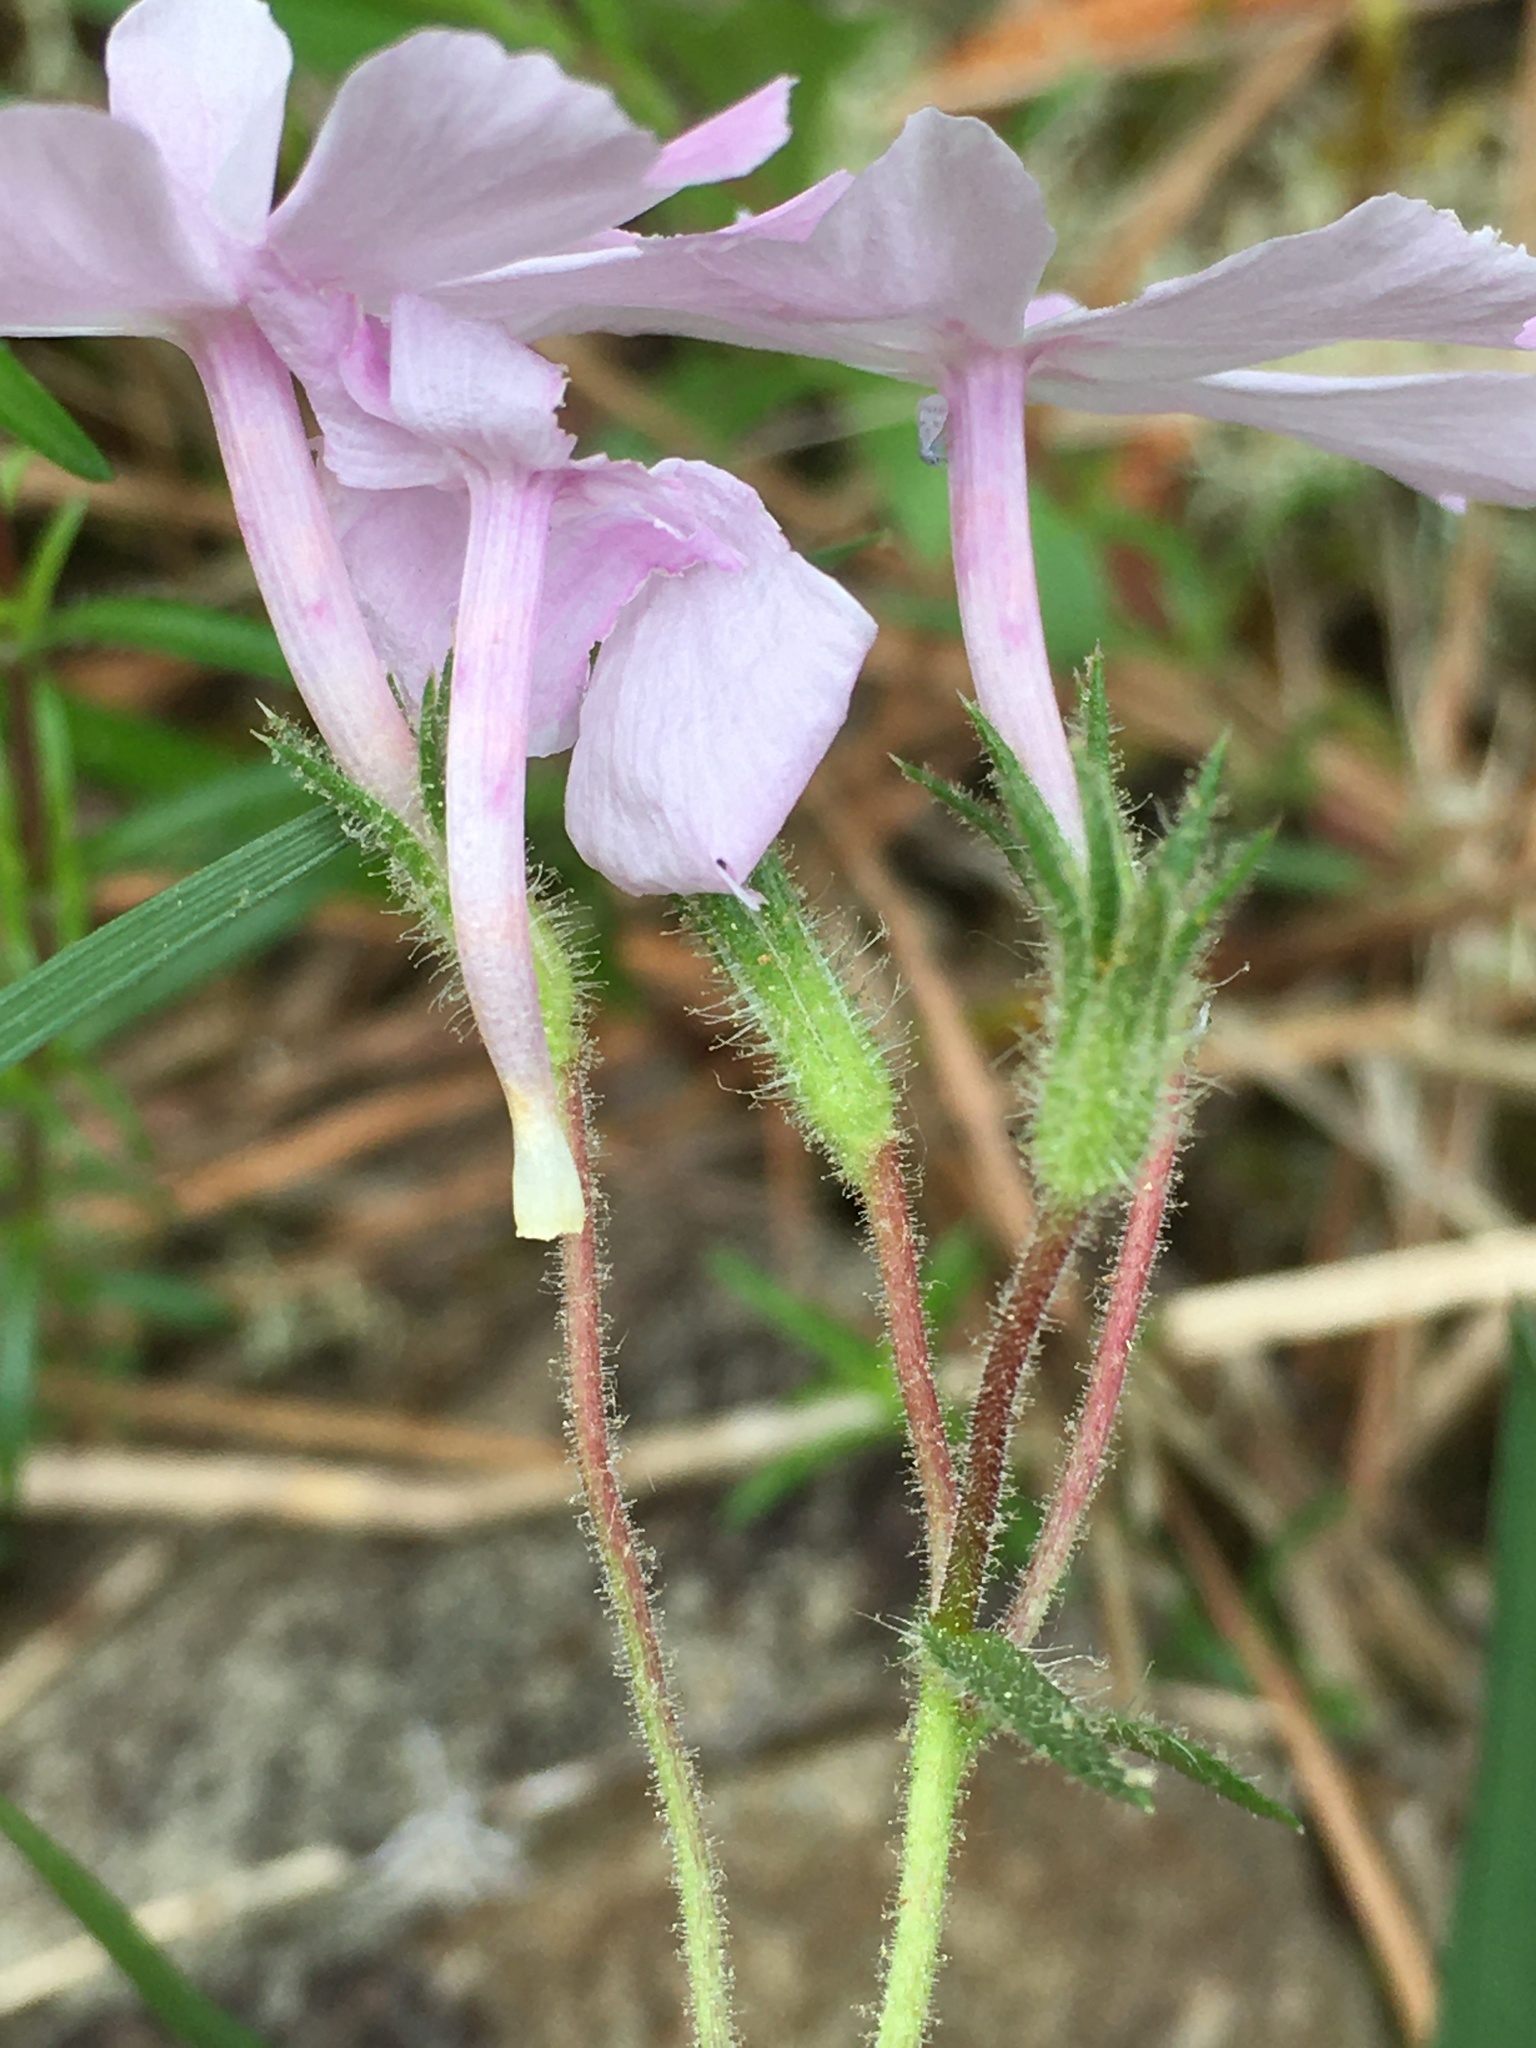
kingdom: Plantae
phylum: Tracheophyta
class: Magnoliopsida
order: Ericales
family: Polemoniaceae
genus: Phlox
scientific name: Phlox nivalis
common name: Trailing phlox
